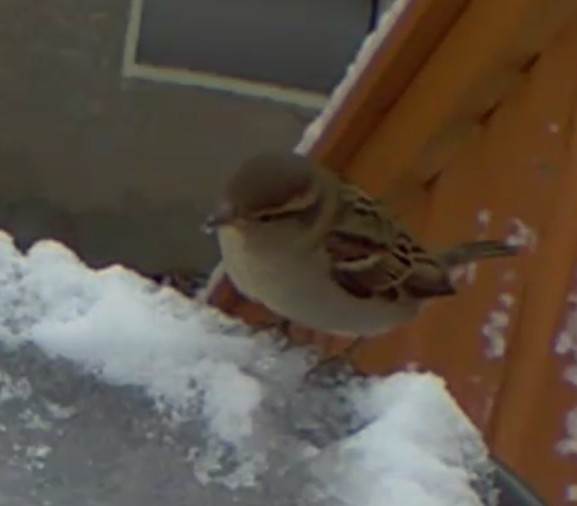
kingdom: Animalia
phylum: Chordata
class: Aves
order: Passeriformes
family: Passeridae
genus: Passer
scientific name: Passer domesticus
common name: House sparrow
